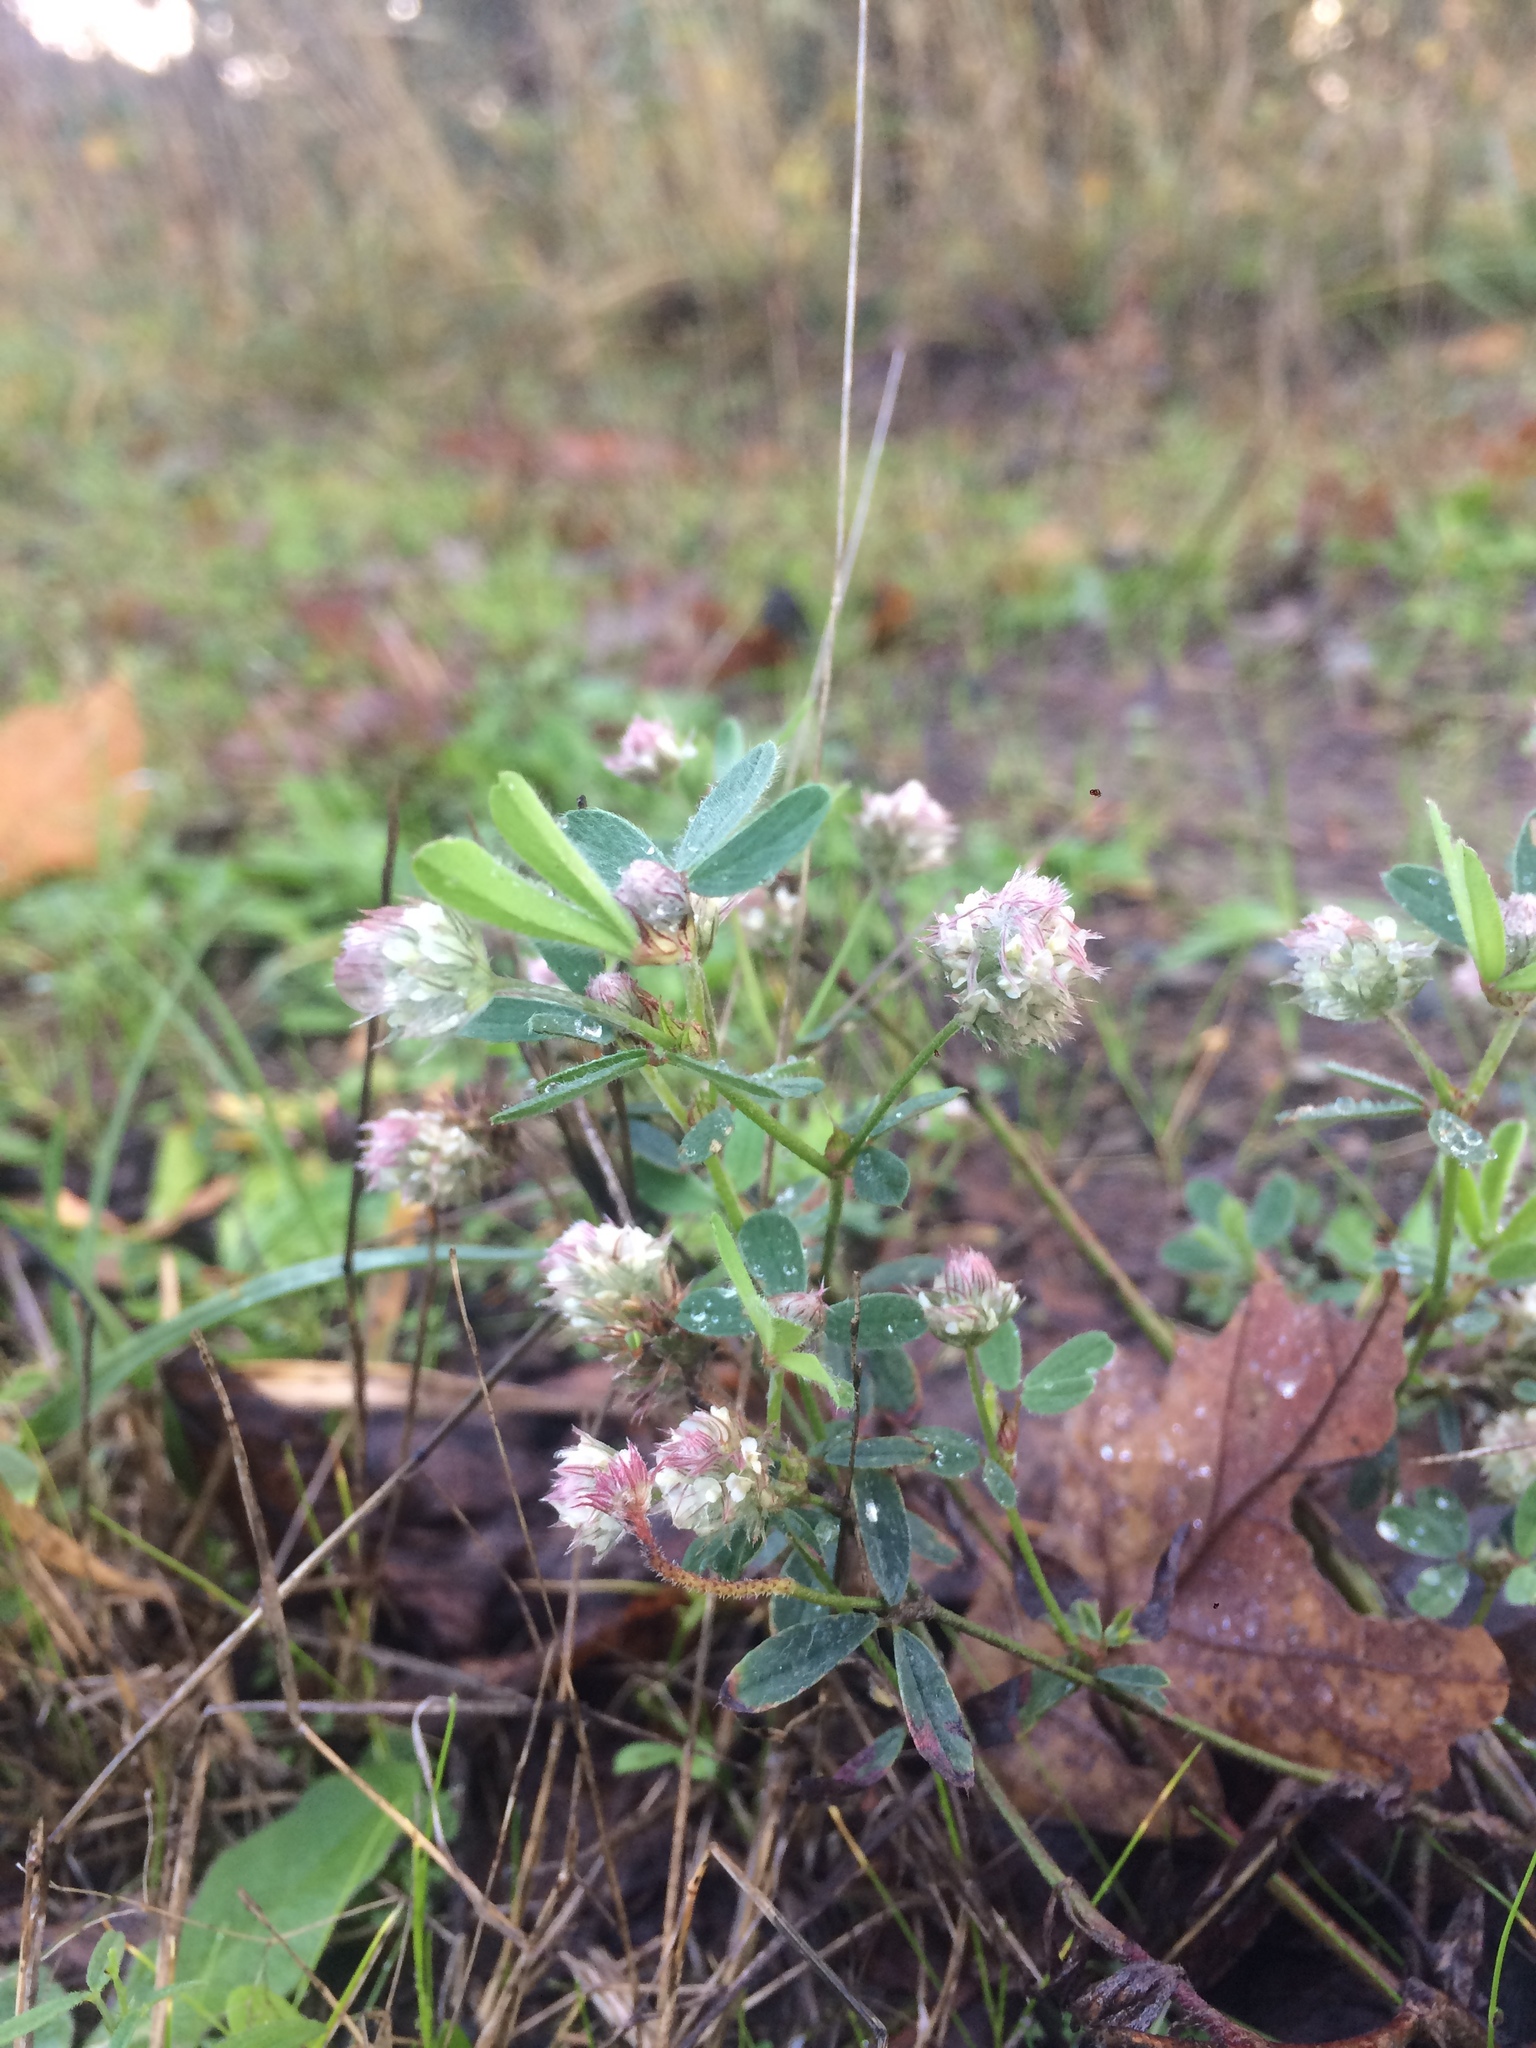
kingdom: Plantae
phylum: Tracheophyta
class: Magnoliopsida
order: Fabales
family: Fabaceae
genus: Trifolium
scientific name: Trifolium arvense
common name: Hare's-foot clover
